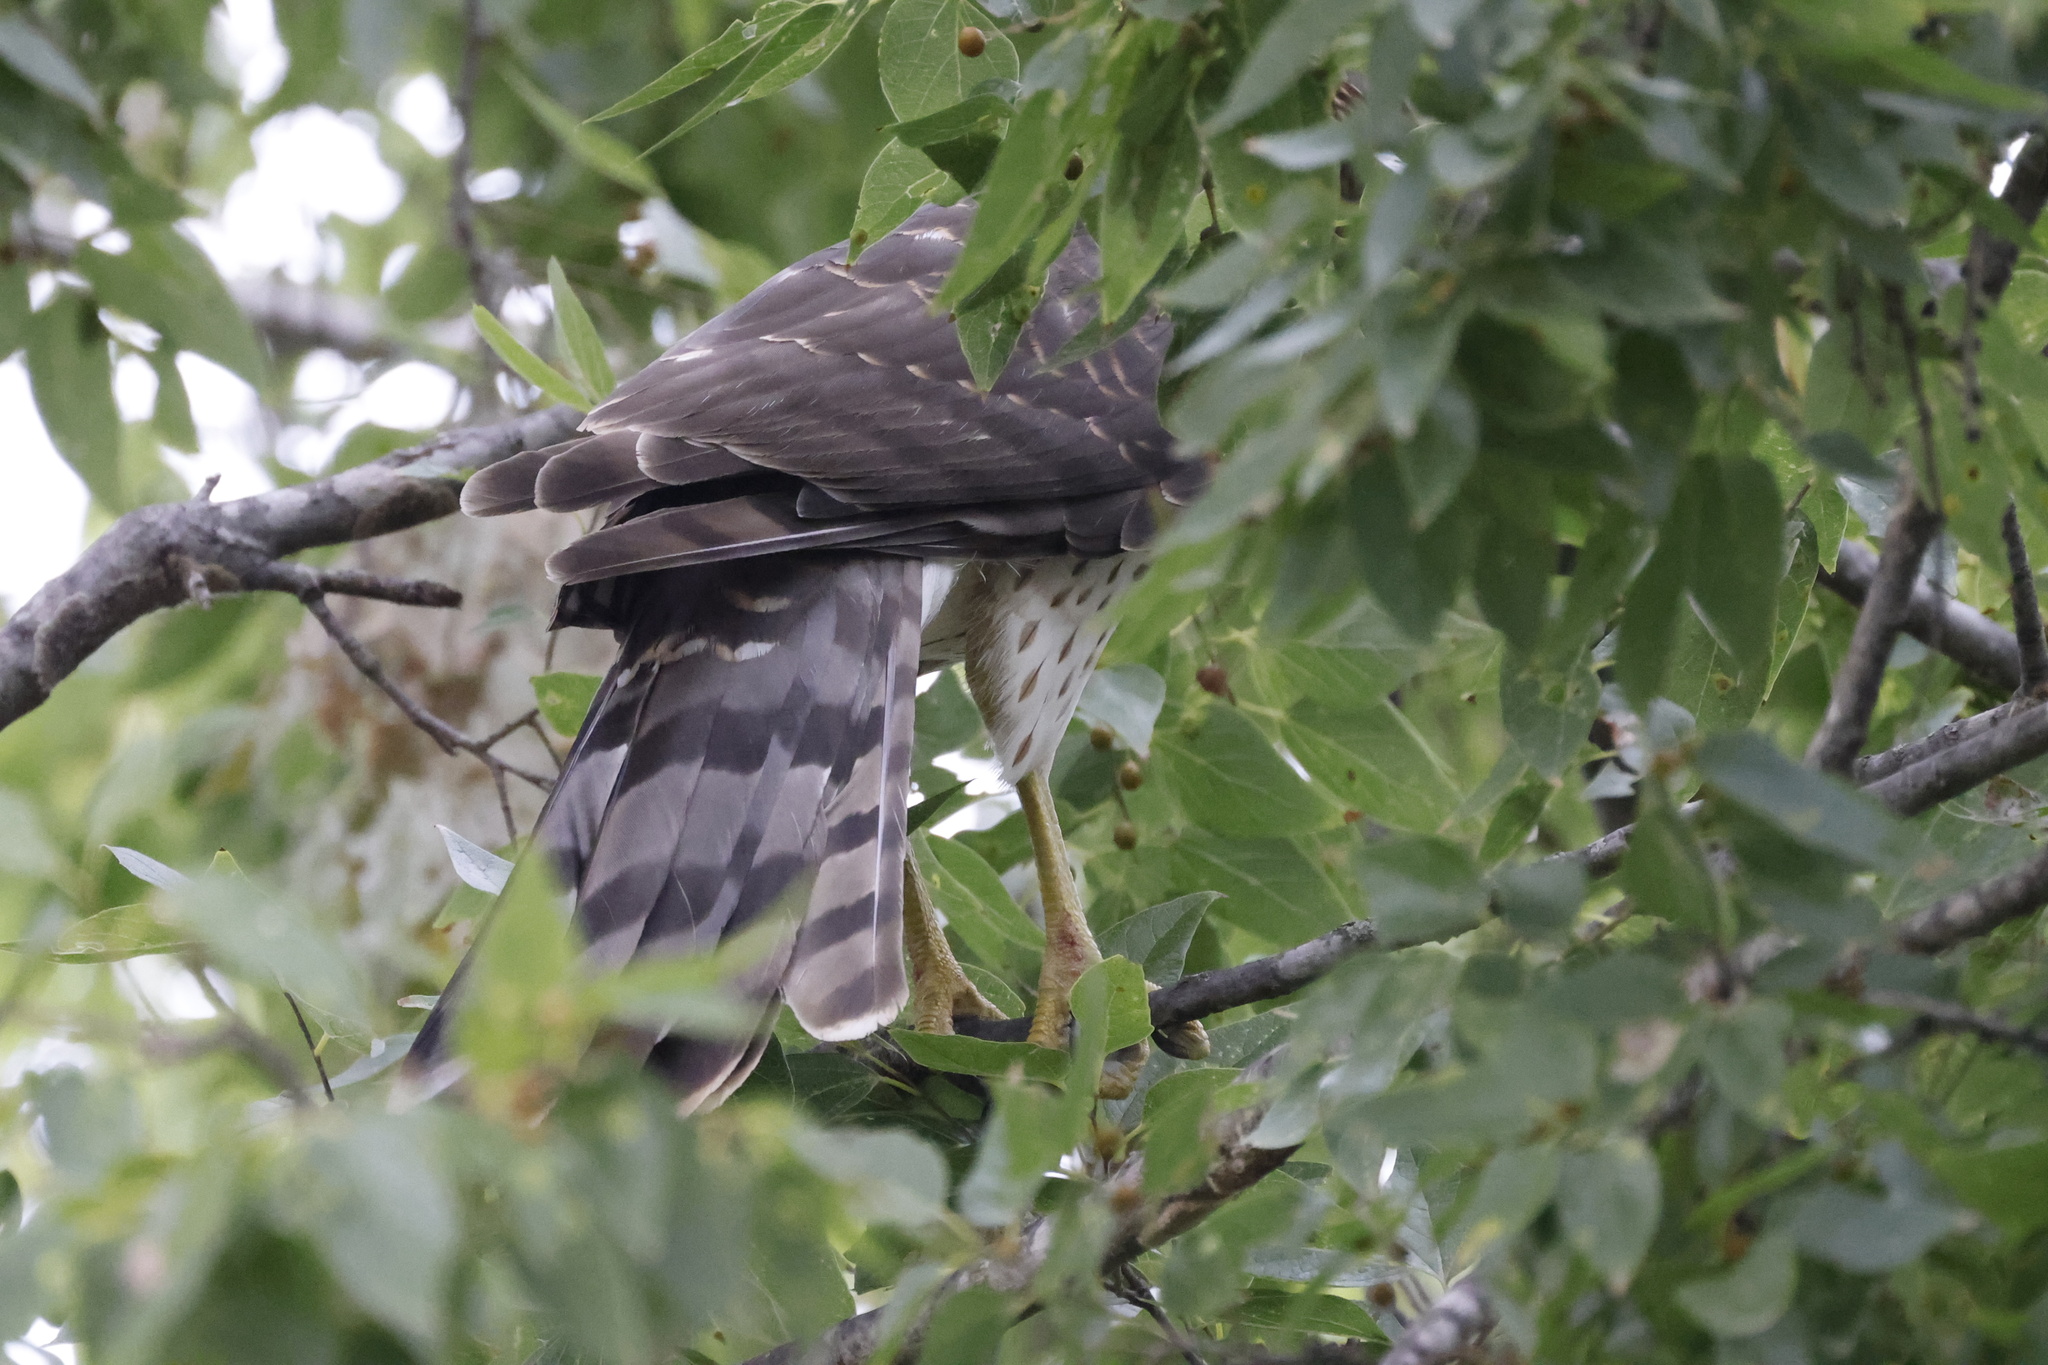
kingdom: Animalia
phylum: Chordata
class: Aves
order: Accipitriformes
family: Accipitridae
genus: Accipiter
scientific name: Accipiter cooperii
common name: Cooper's hawk
